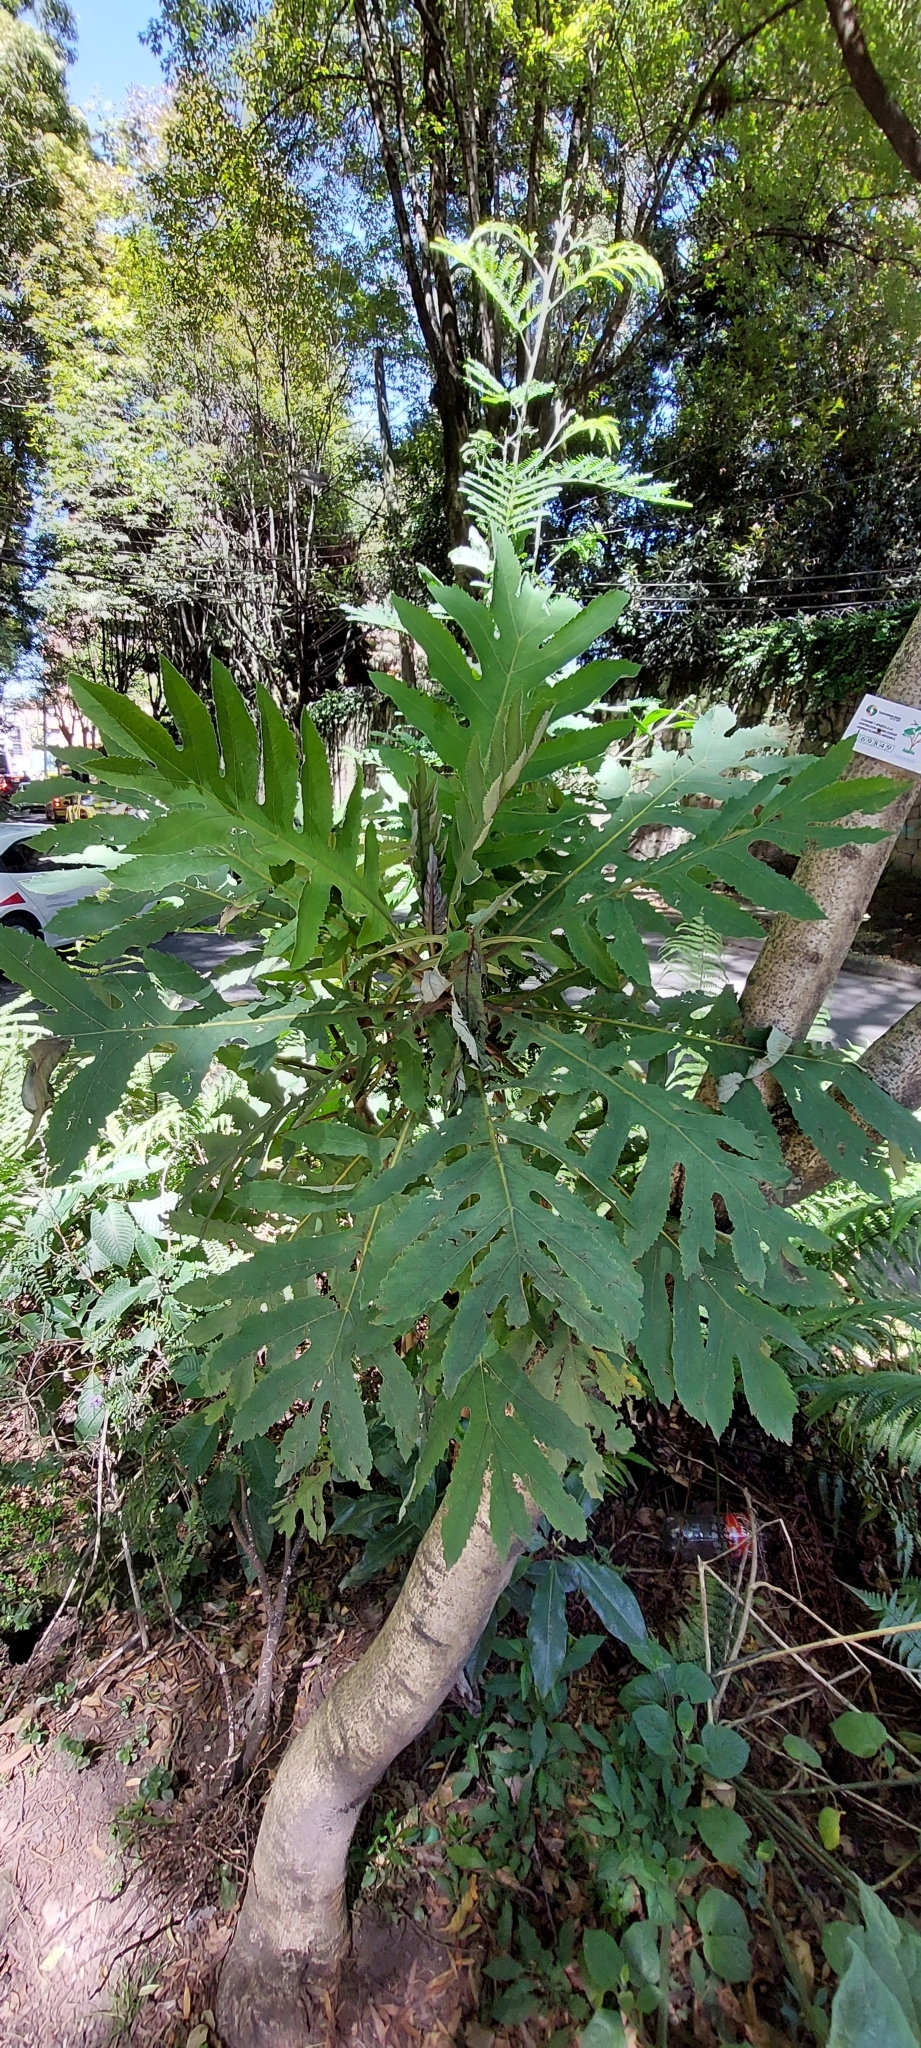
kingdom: Plantae
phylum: Tracheophyta
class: Magnoliopsida
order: Ranunculales
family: Papaveraceae
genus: Bocconia
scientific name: Bocconia frutescens
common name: Tree poppy
